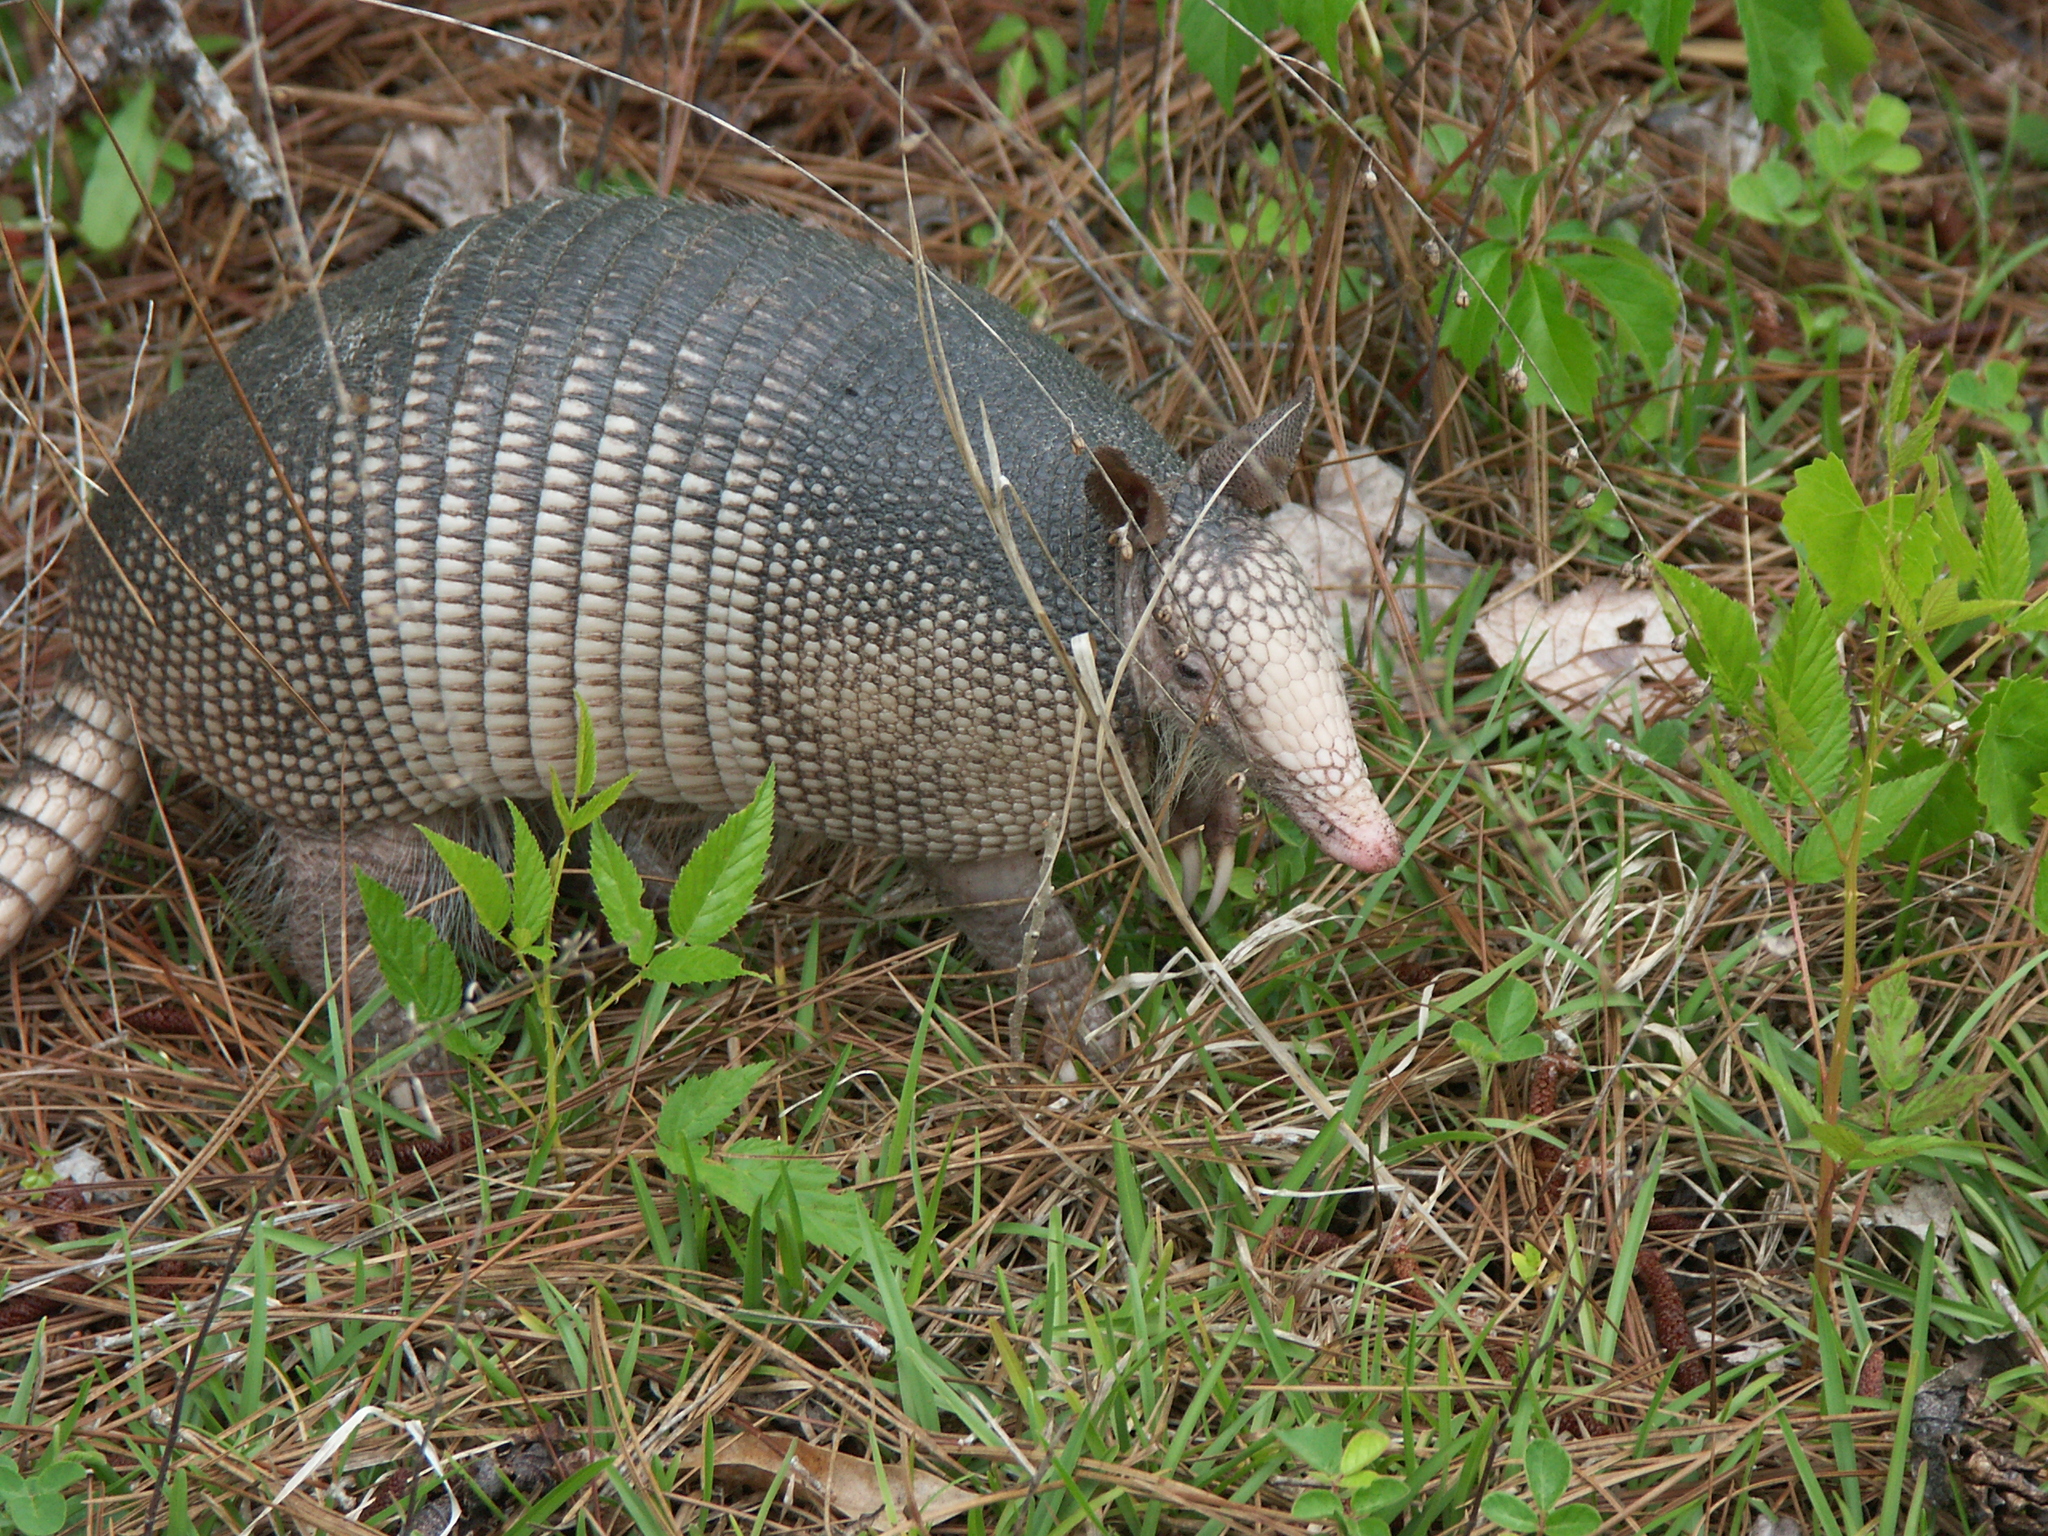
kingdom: Animalia
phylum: Chordata
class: Mammalia
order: Cingulata
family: Dasypodidae
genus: Dasypus
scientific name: Dasypus novemcinctus
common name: Nine-banded armadillo
